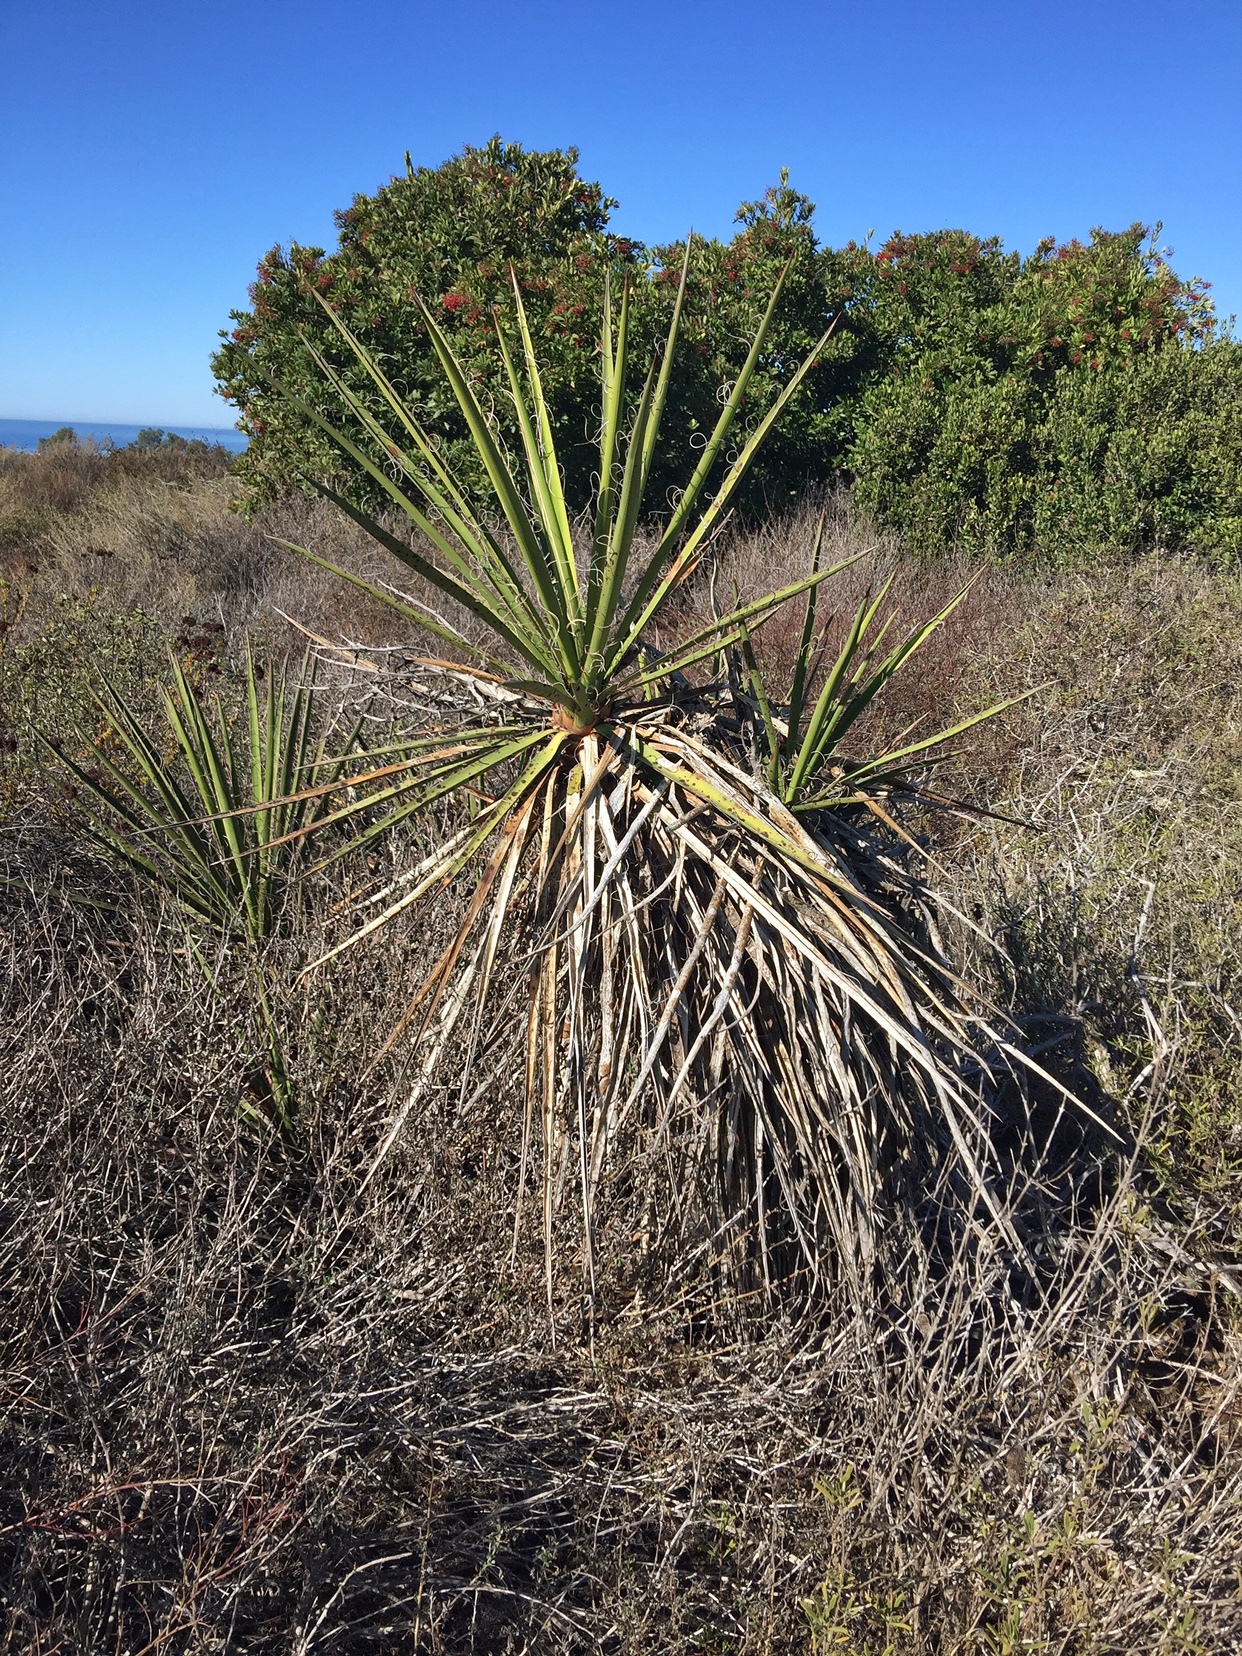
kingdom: Plantae
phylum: Tracheophyta
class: Liliopsida
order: Asparagales
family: Asparagaceae
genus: Yucca
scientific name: Yucca schidigera
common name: Mojave yucca
